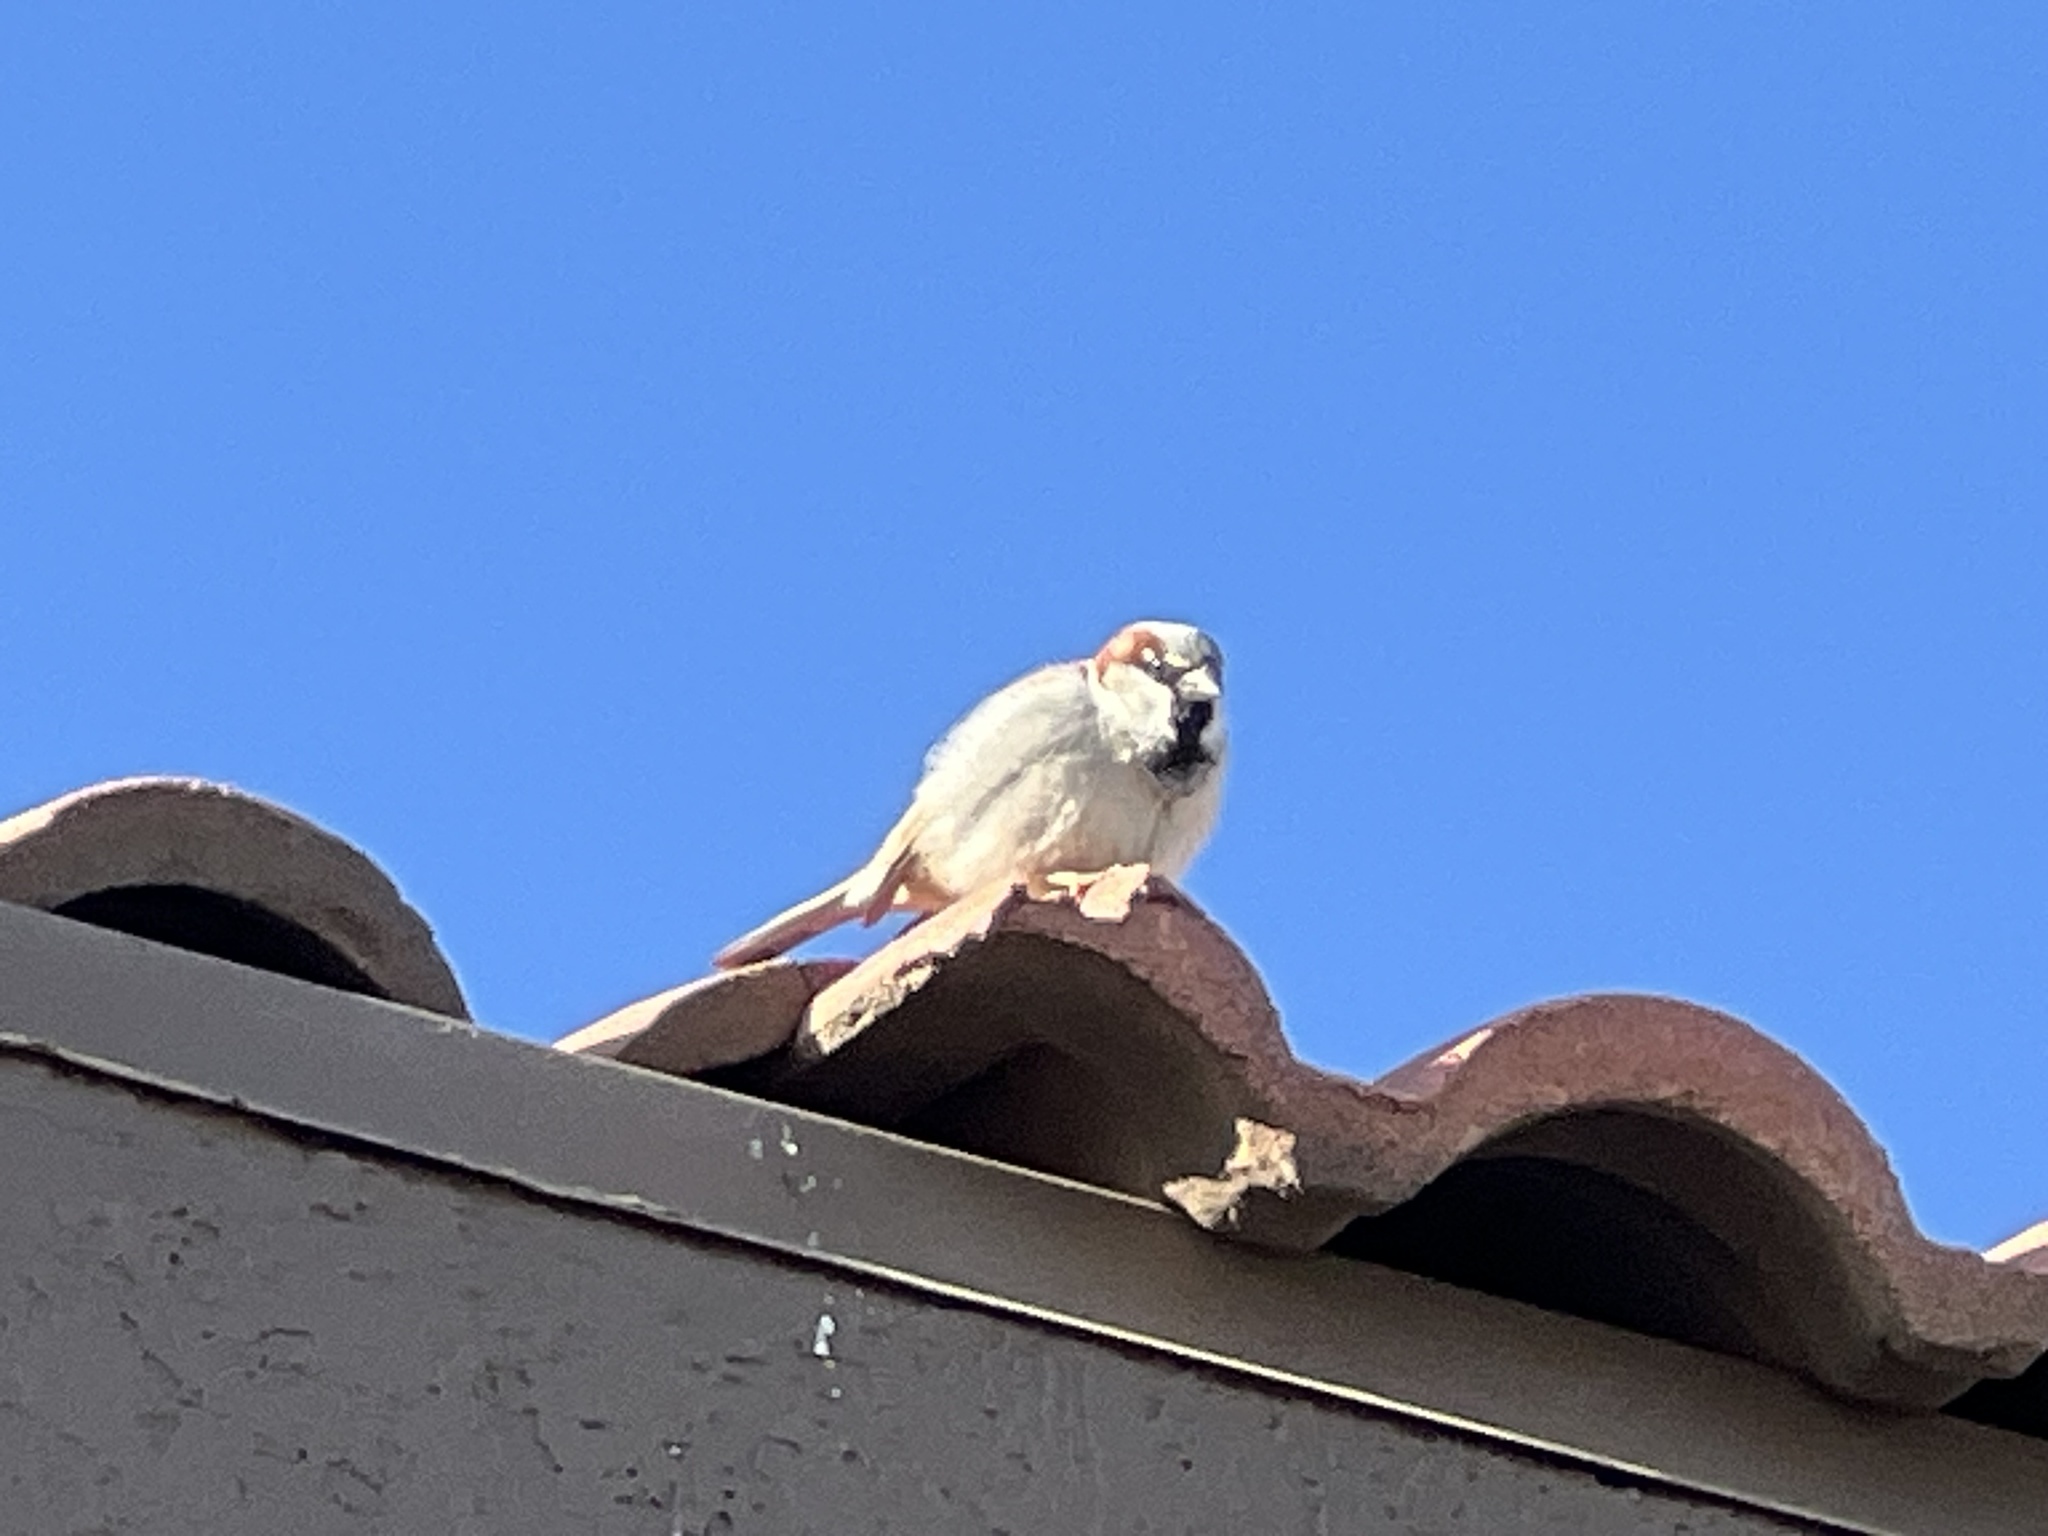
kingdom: Animalia
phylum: Chordata
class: Aves
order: Passeriformes
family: Passeridae
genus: Passer
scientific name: Passer domesticus
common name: House sparrow
